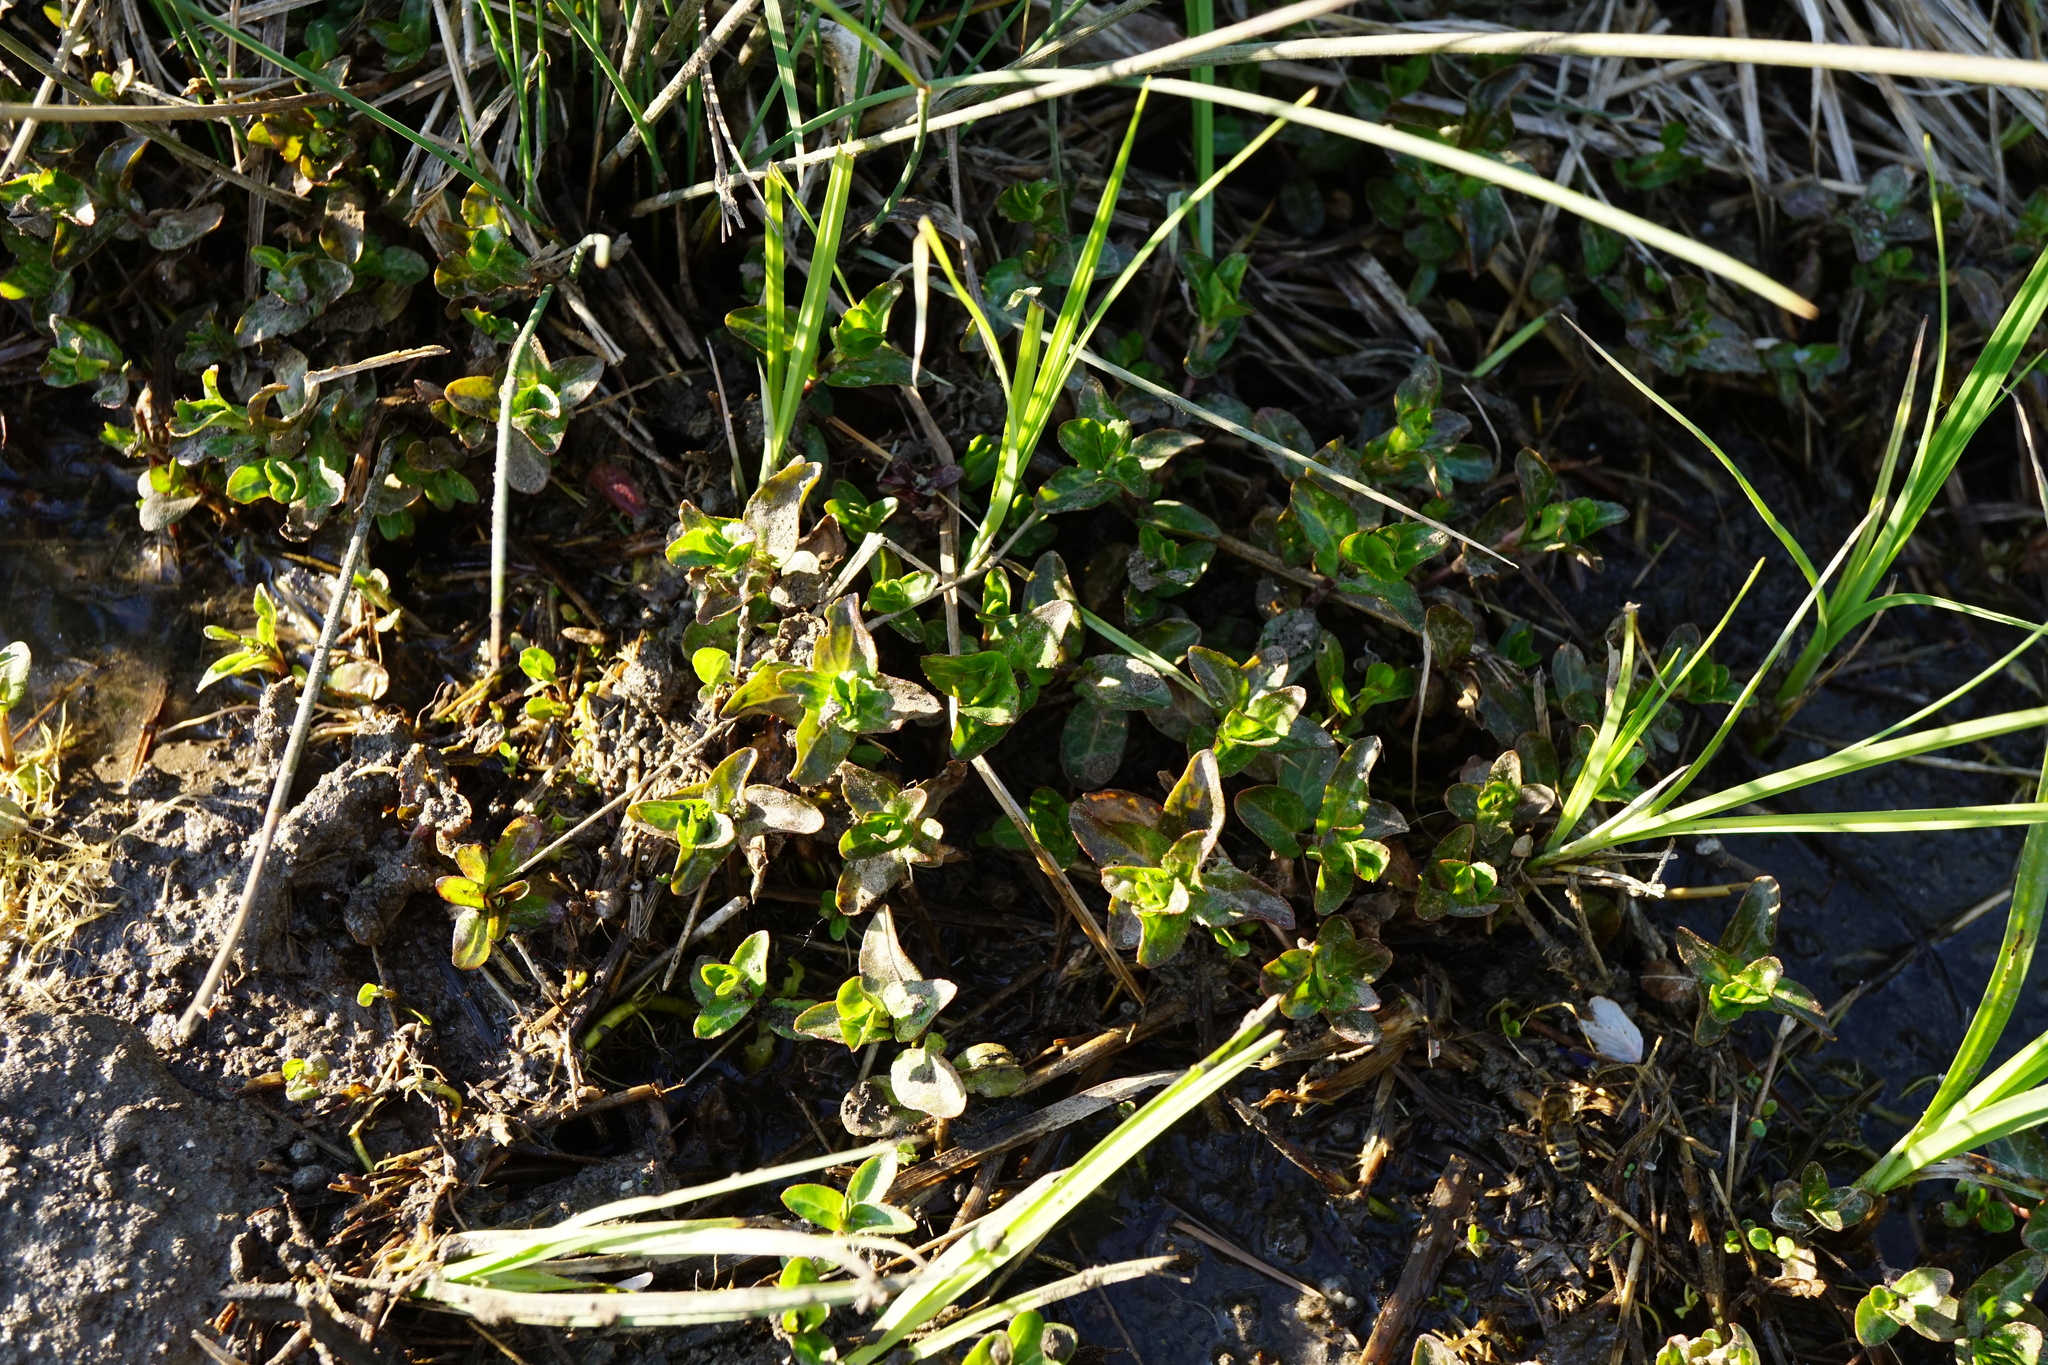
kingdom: Plantae
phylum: Tracheophyta
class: Magnoliopsida
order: Lamiales
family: Plantaginaceae
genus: Veronica
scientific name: Veronica beccabunga
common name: Brooklime
